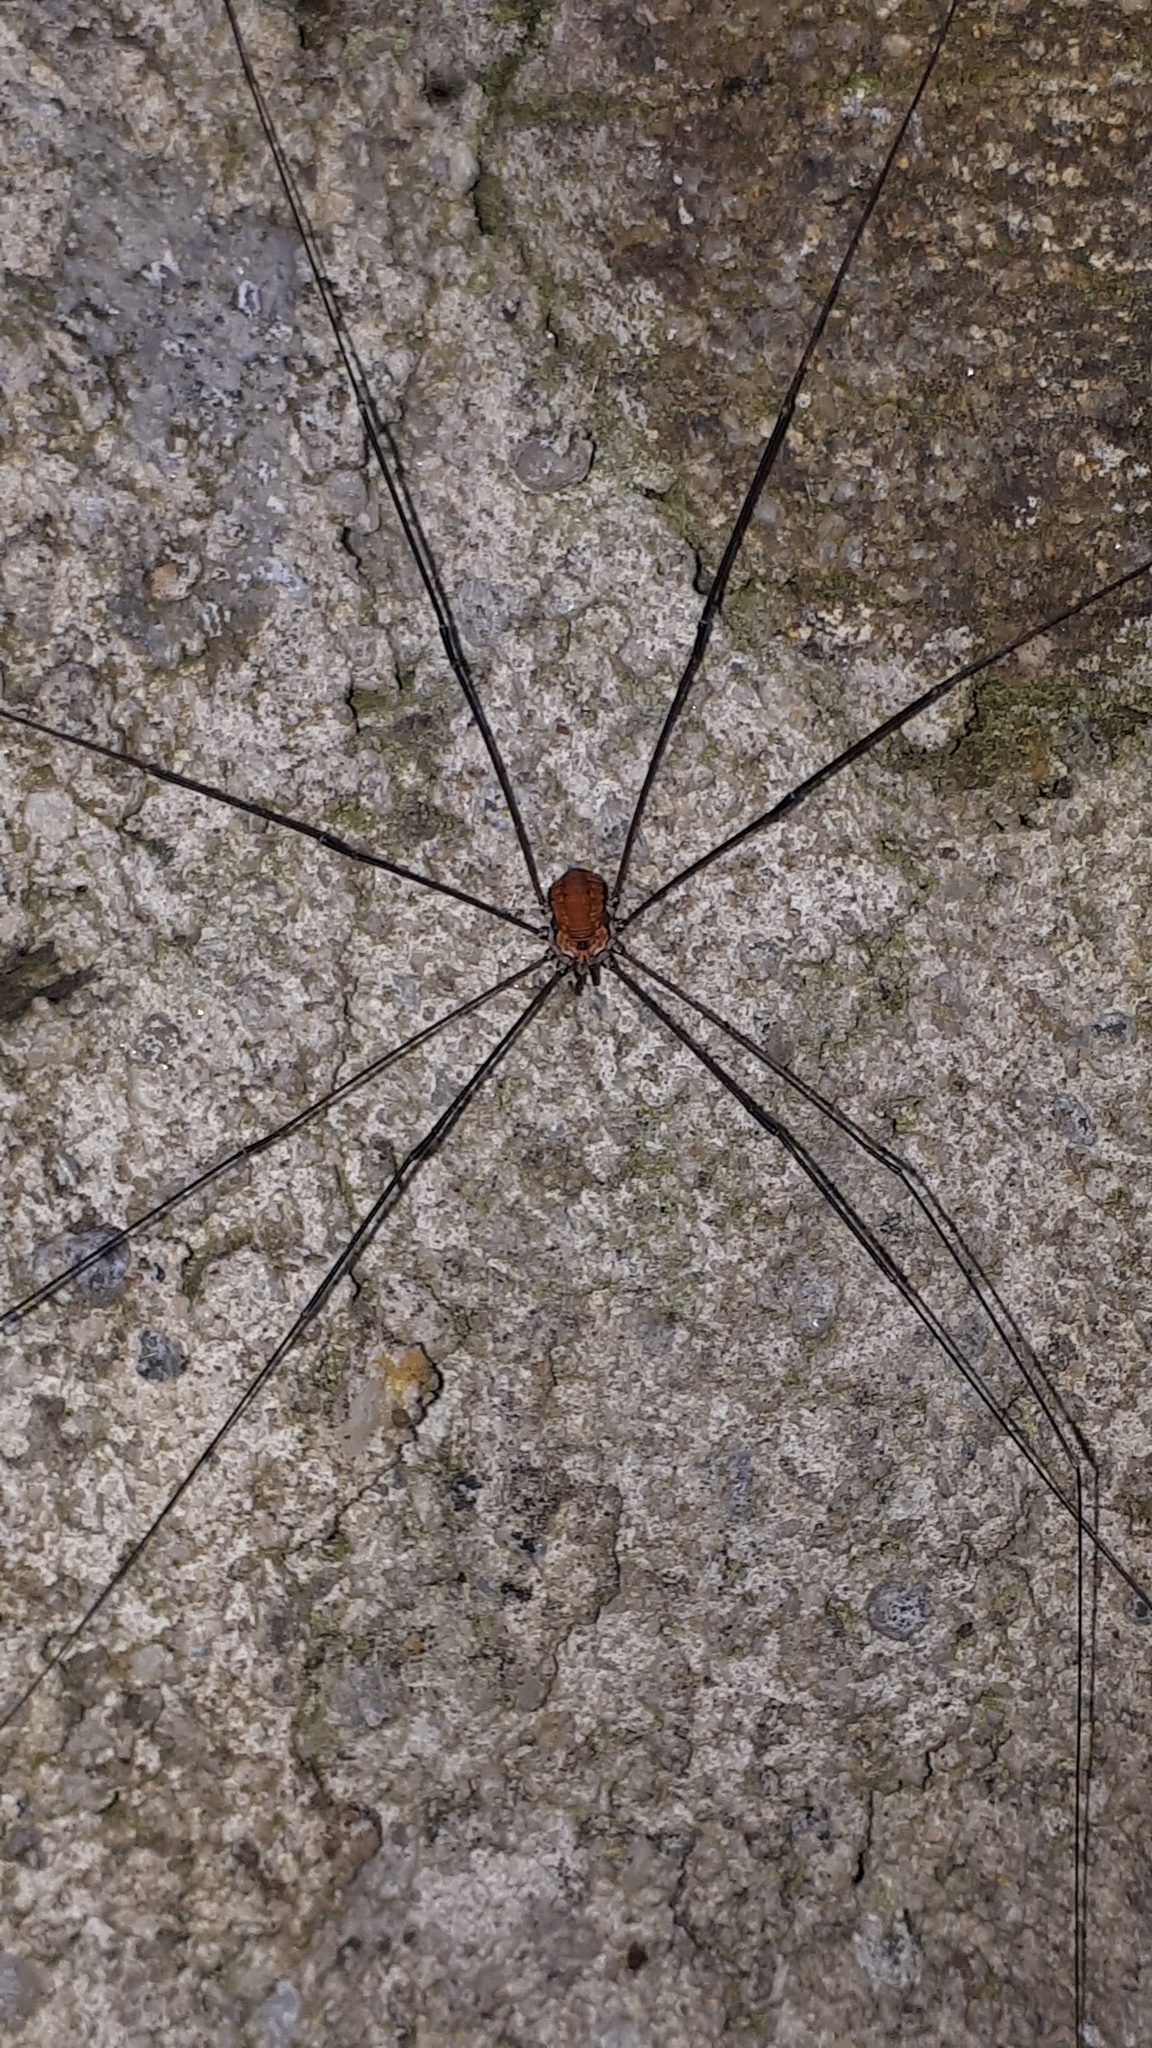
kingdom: Animalia
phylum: Arthropoda
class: Arachnida
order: Opiliones
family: Sclerosomatidae
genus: Leiobunum
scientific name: Leiobunum limbatum
